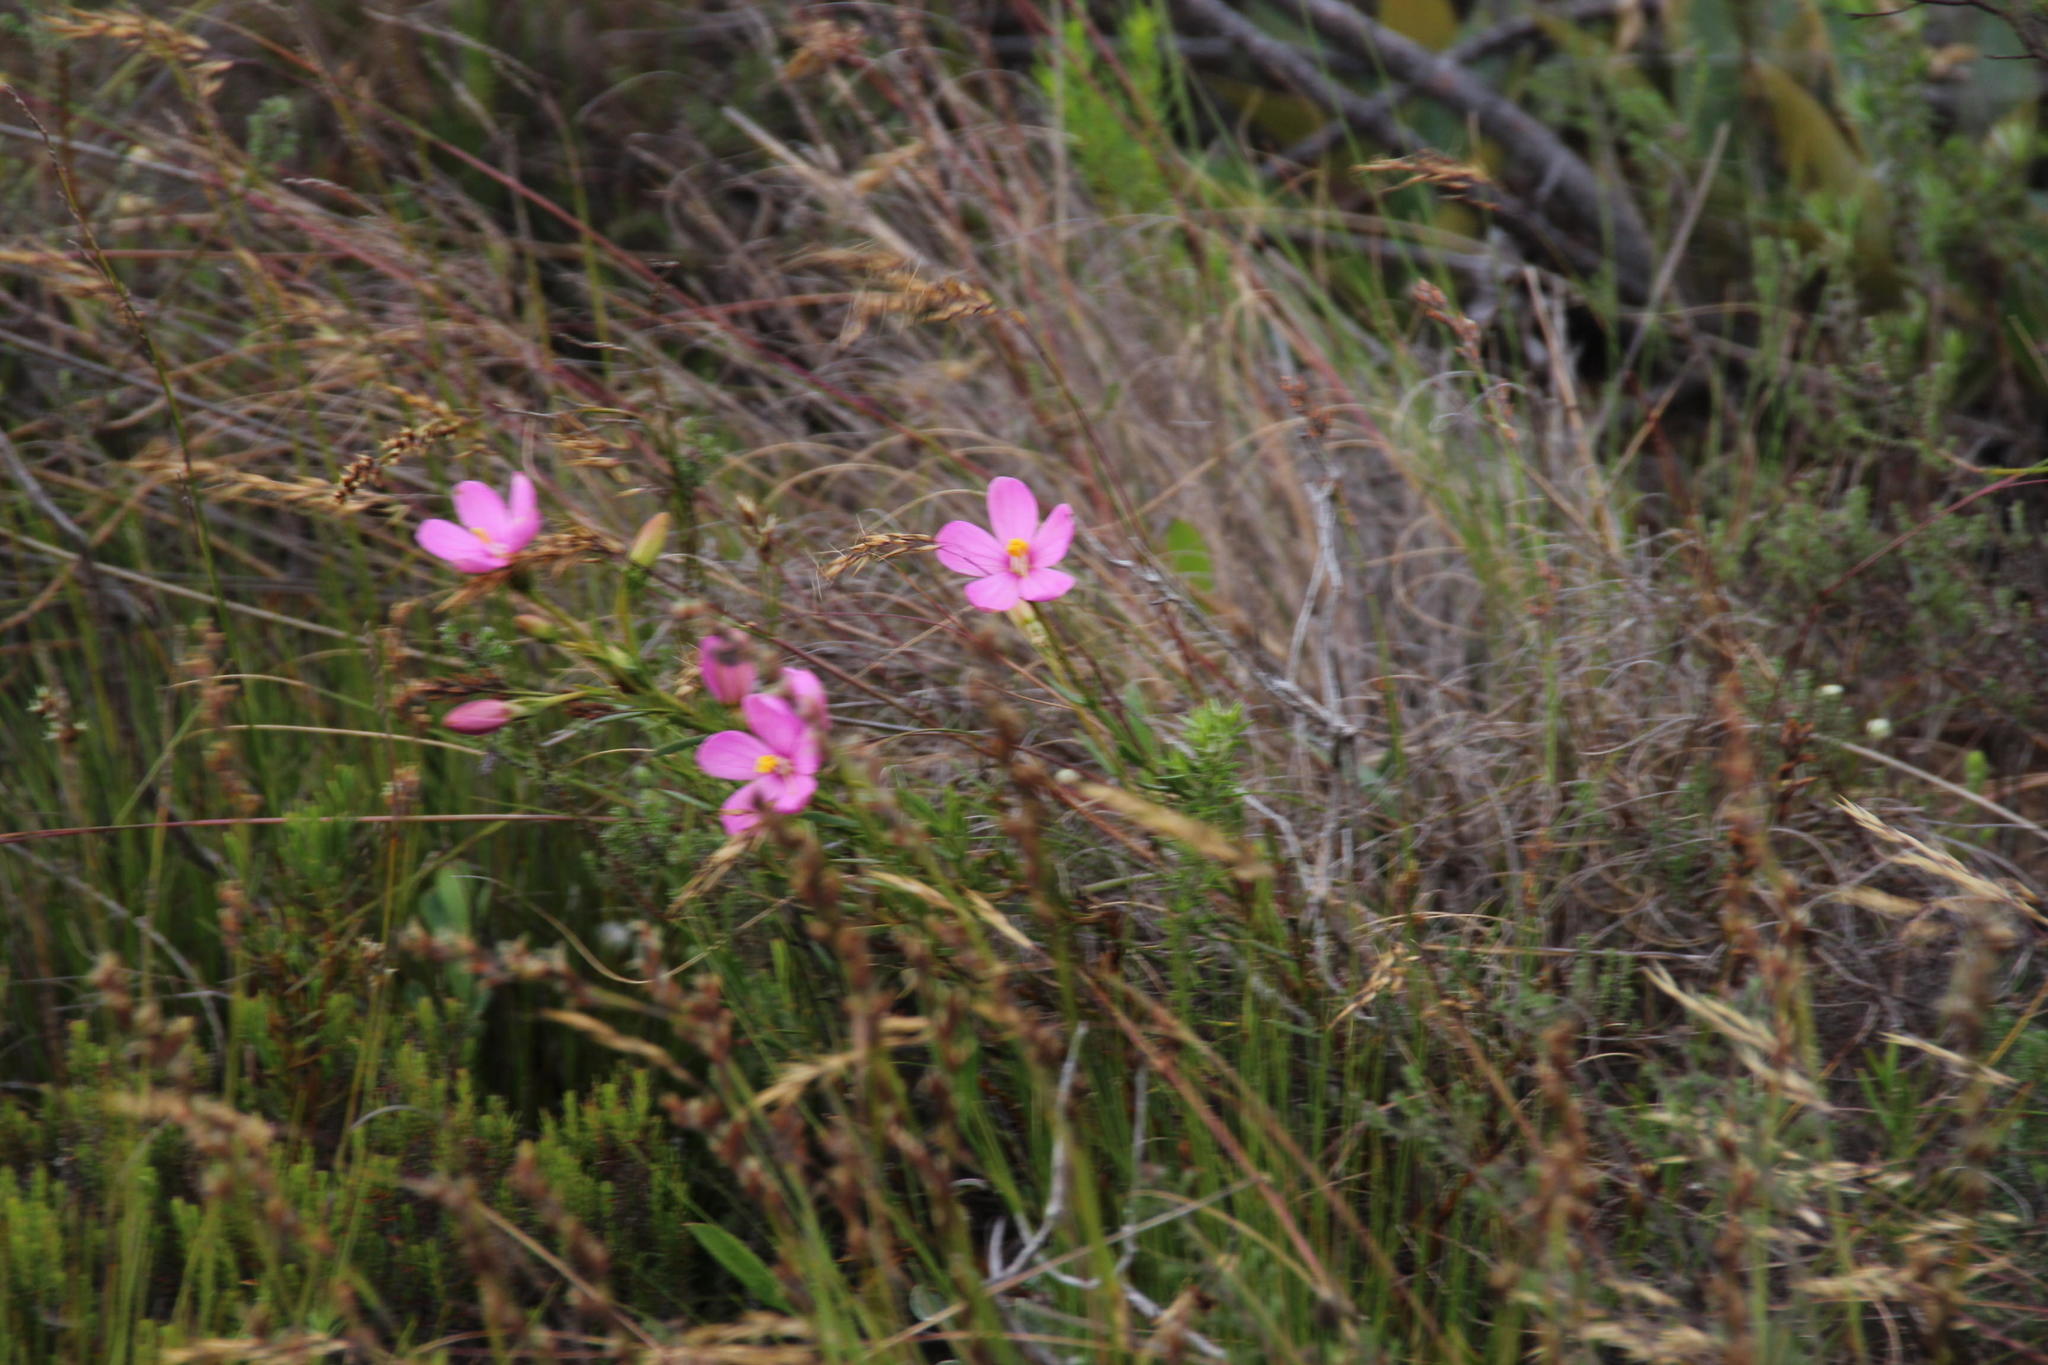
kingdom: Plantae
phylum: Tracheophyta
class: Magnoliopsida
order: Gentianales
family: Gentianaceae
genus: Orphium
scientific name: Orphium frutescens
